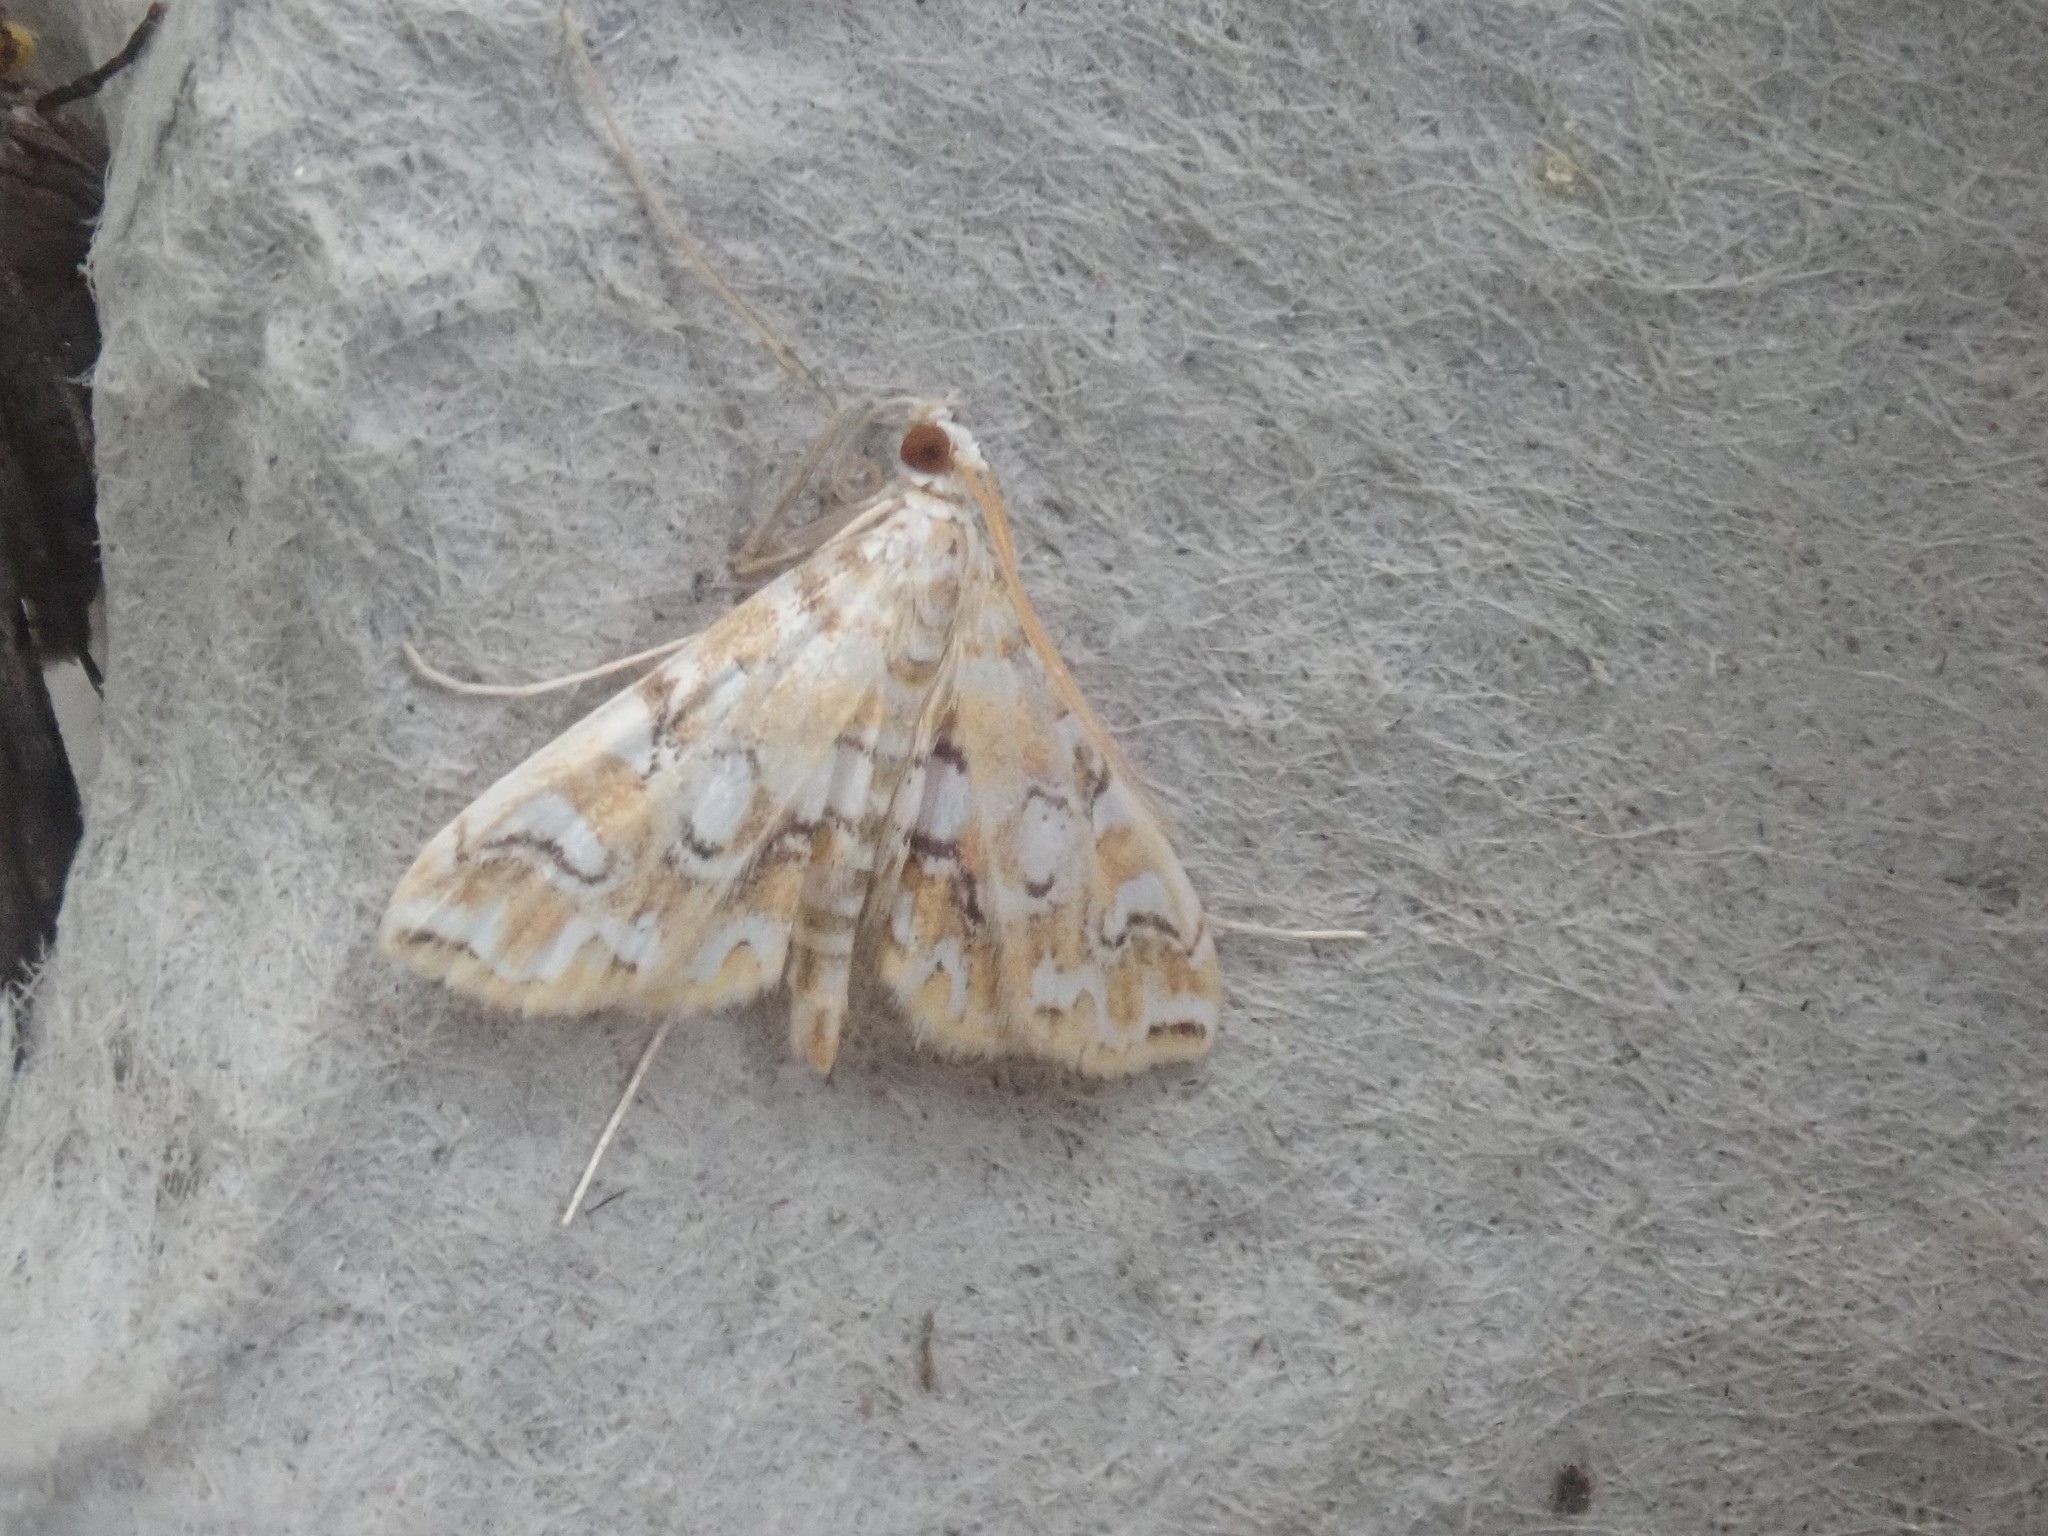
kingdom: Animalia
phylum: Arthropoda
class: Insecta
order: Lepidoptera
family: Crambidae
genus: Elophila
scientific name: Elophila icciusalis
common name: Pondside pyralid moth
